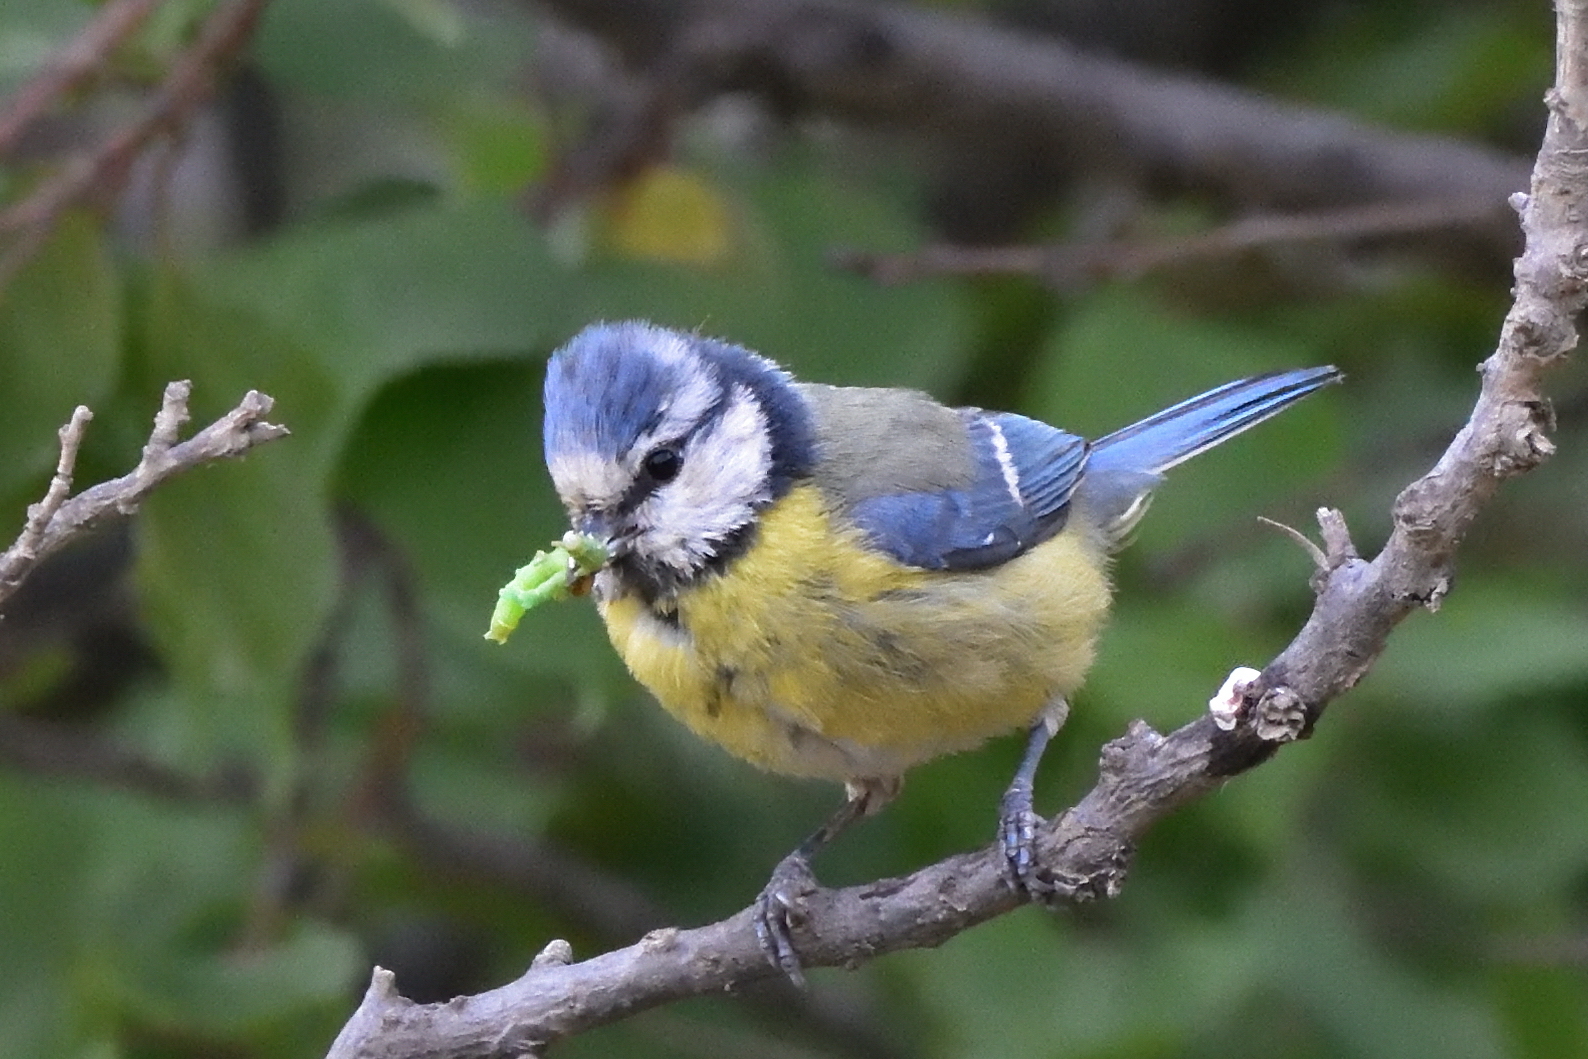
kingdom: Animalia
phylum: Chordata
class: Aves
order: Passeriformes
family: Paridae
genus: Cyanistes
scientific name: Cyanistes caeruleus
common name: Eurasian blue tit
